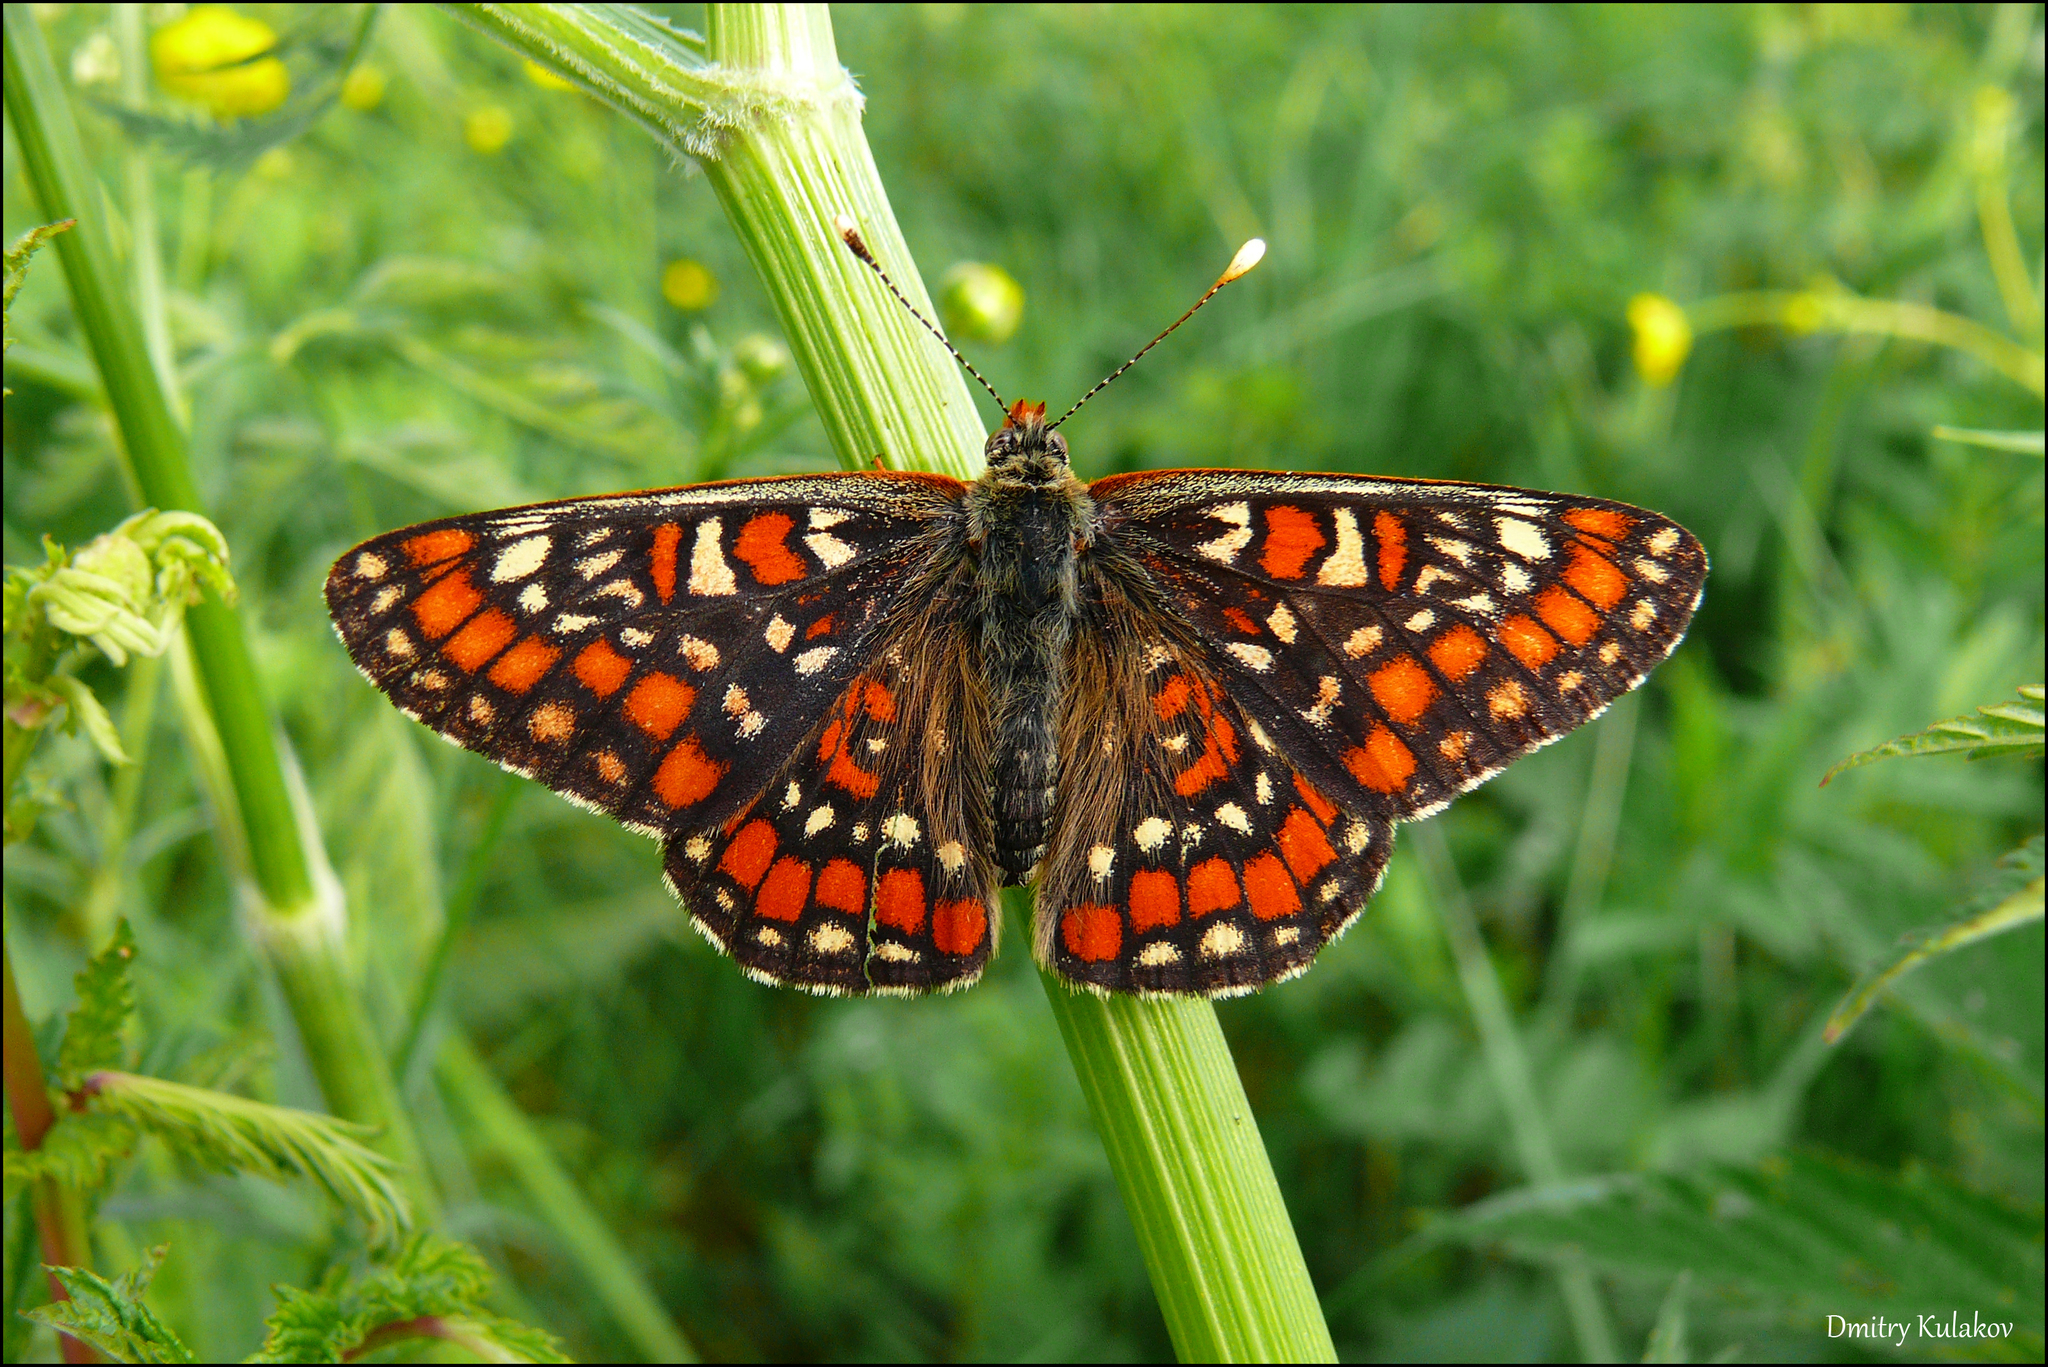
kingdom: Animalia
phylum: Arthropoda
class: Insecta
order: Lepidoptera
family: Nymphalidae
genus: Euphydryas
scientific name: Euphydryas maturna
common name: Scarce fritillary
